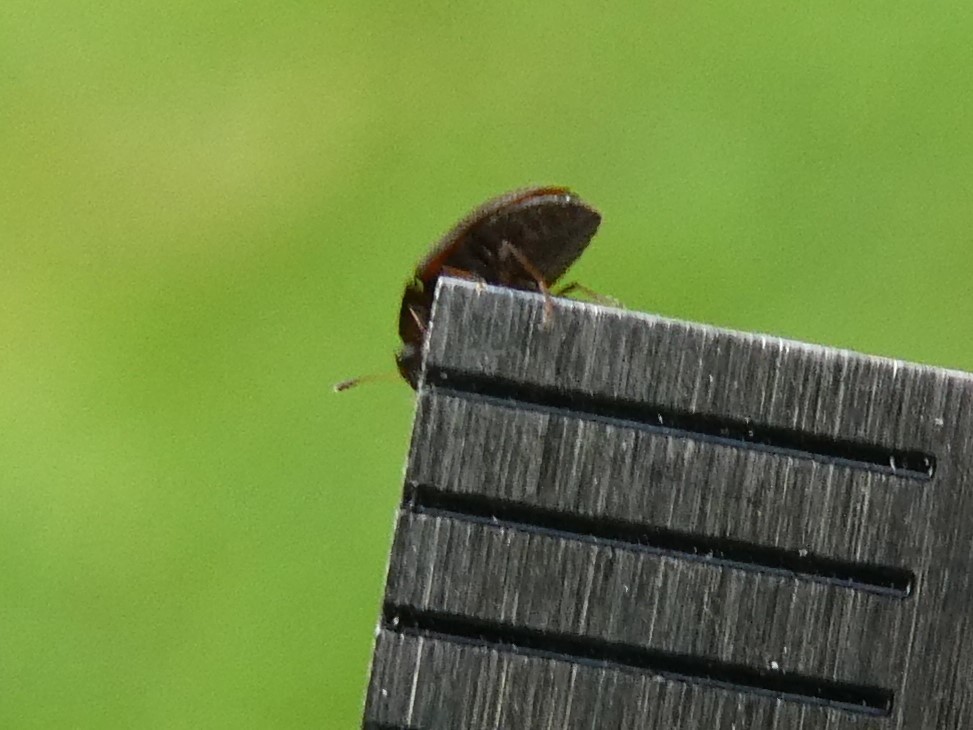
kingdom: Animalia
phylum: Arthropoda
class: Insecta
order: Coleoptera
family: Mycetophagidae
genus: Litargus
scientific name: Litargus tetraspilotus
